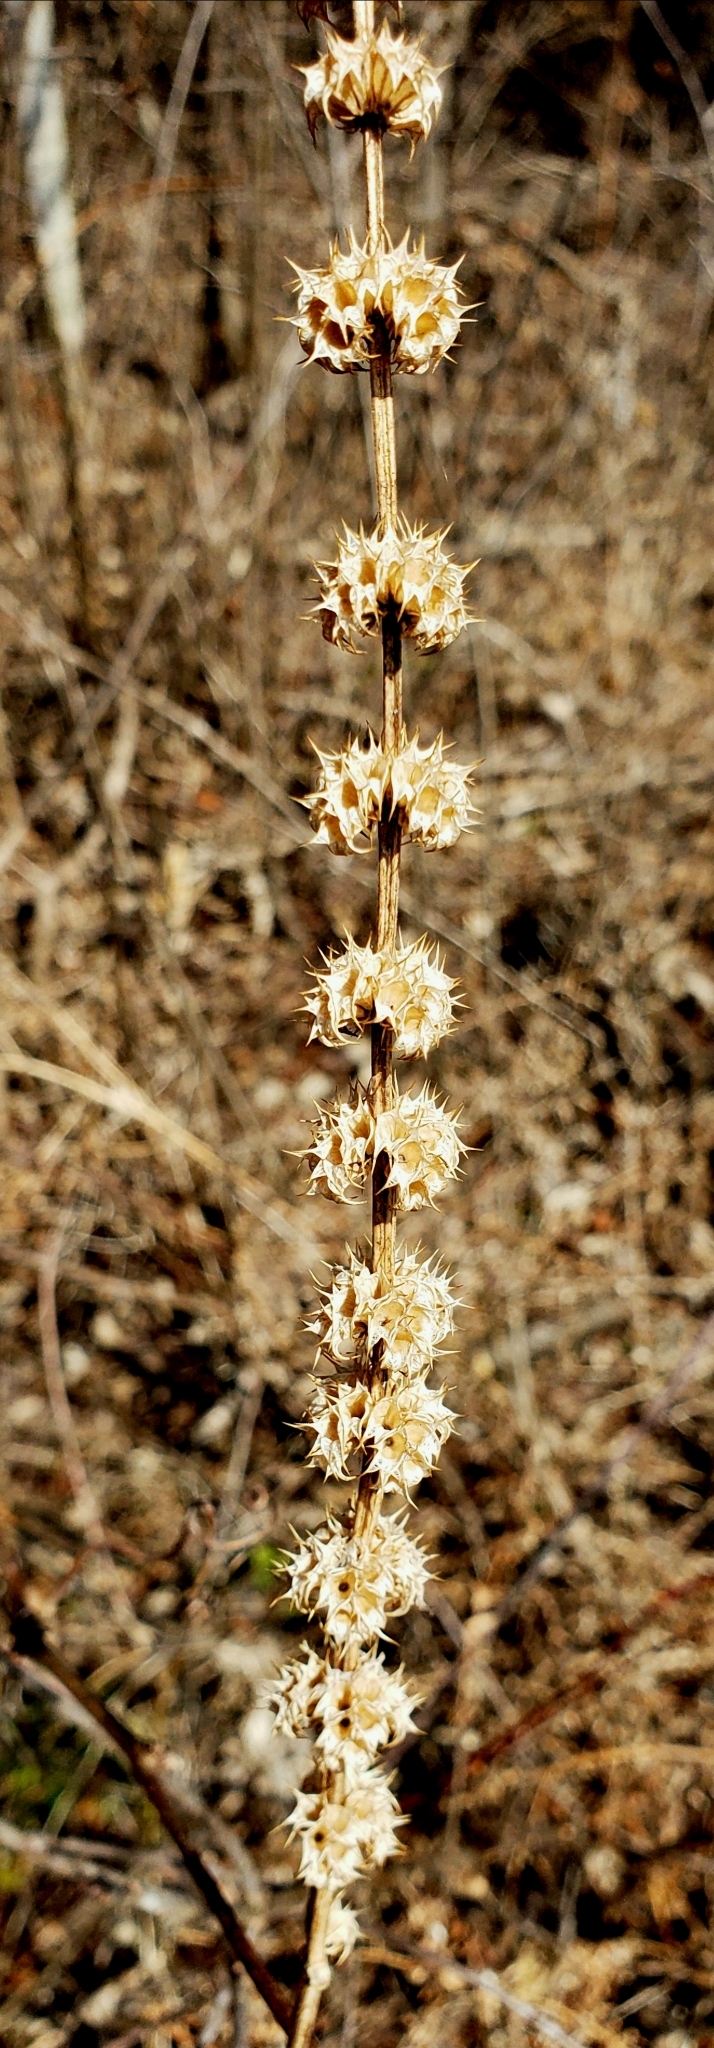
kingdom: Plantae
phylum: Tracheophyta
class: Magnoliopsida
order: Lamiales
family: Lamiaceae
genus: Leonurus
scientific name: Leonurus cardiaca
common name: Motherwort
